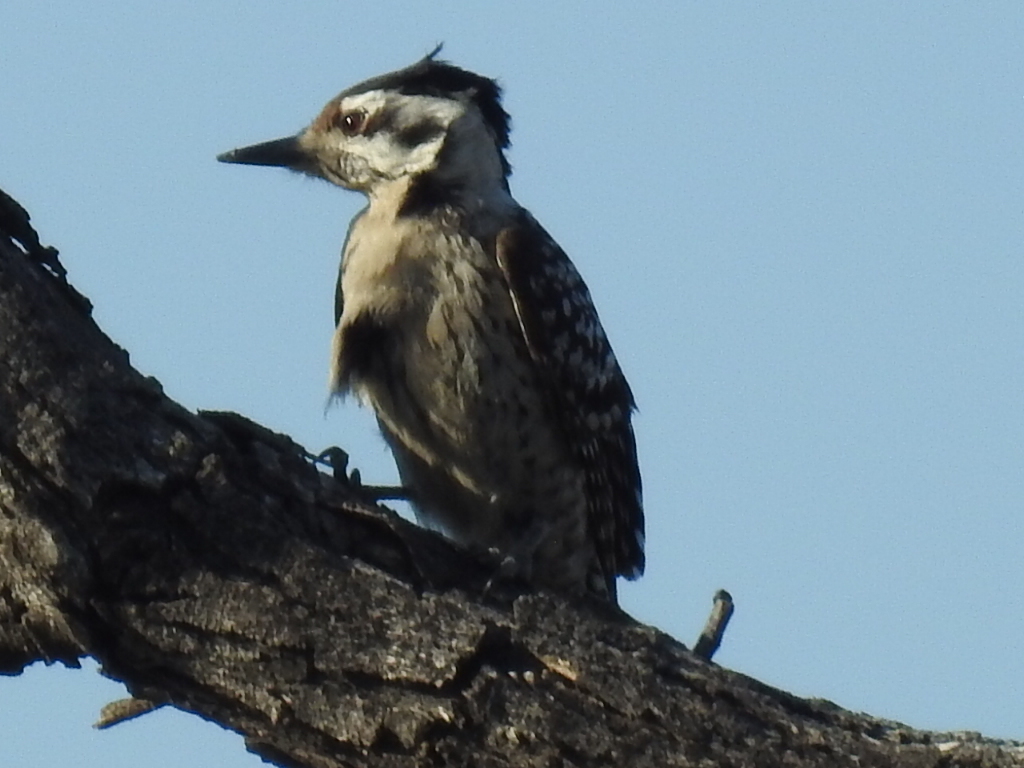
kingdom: Animalia
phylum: Chordata
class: Aves
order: Piciformes
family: Picidae
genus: Dryobates
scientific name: Dryobates scalaris
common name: Ladder-backed woodpecker
